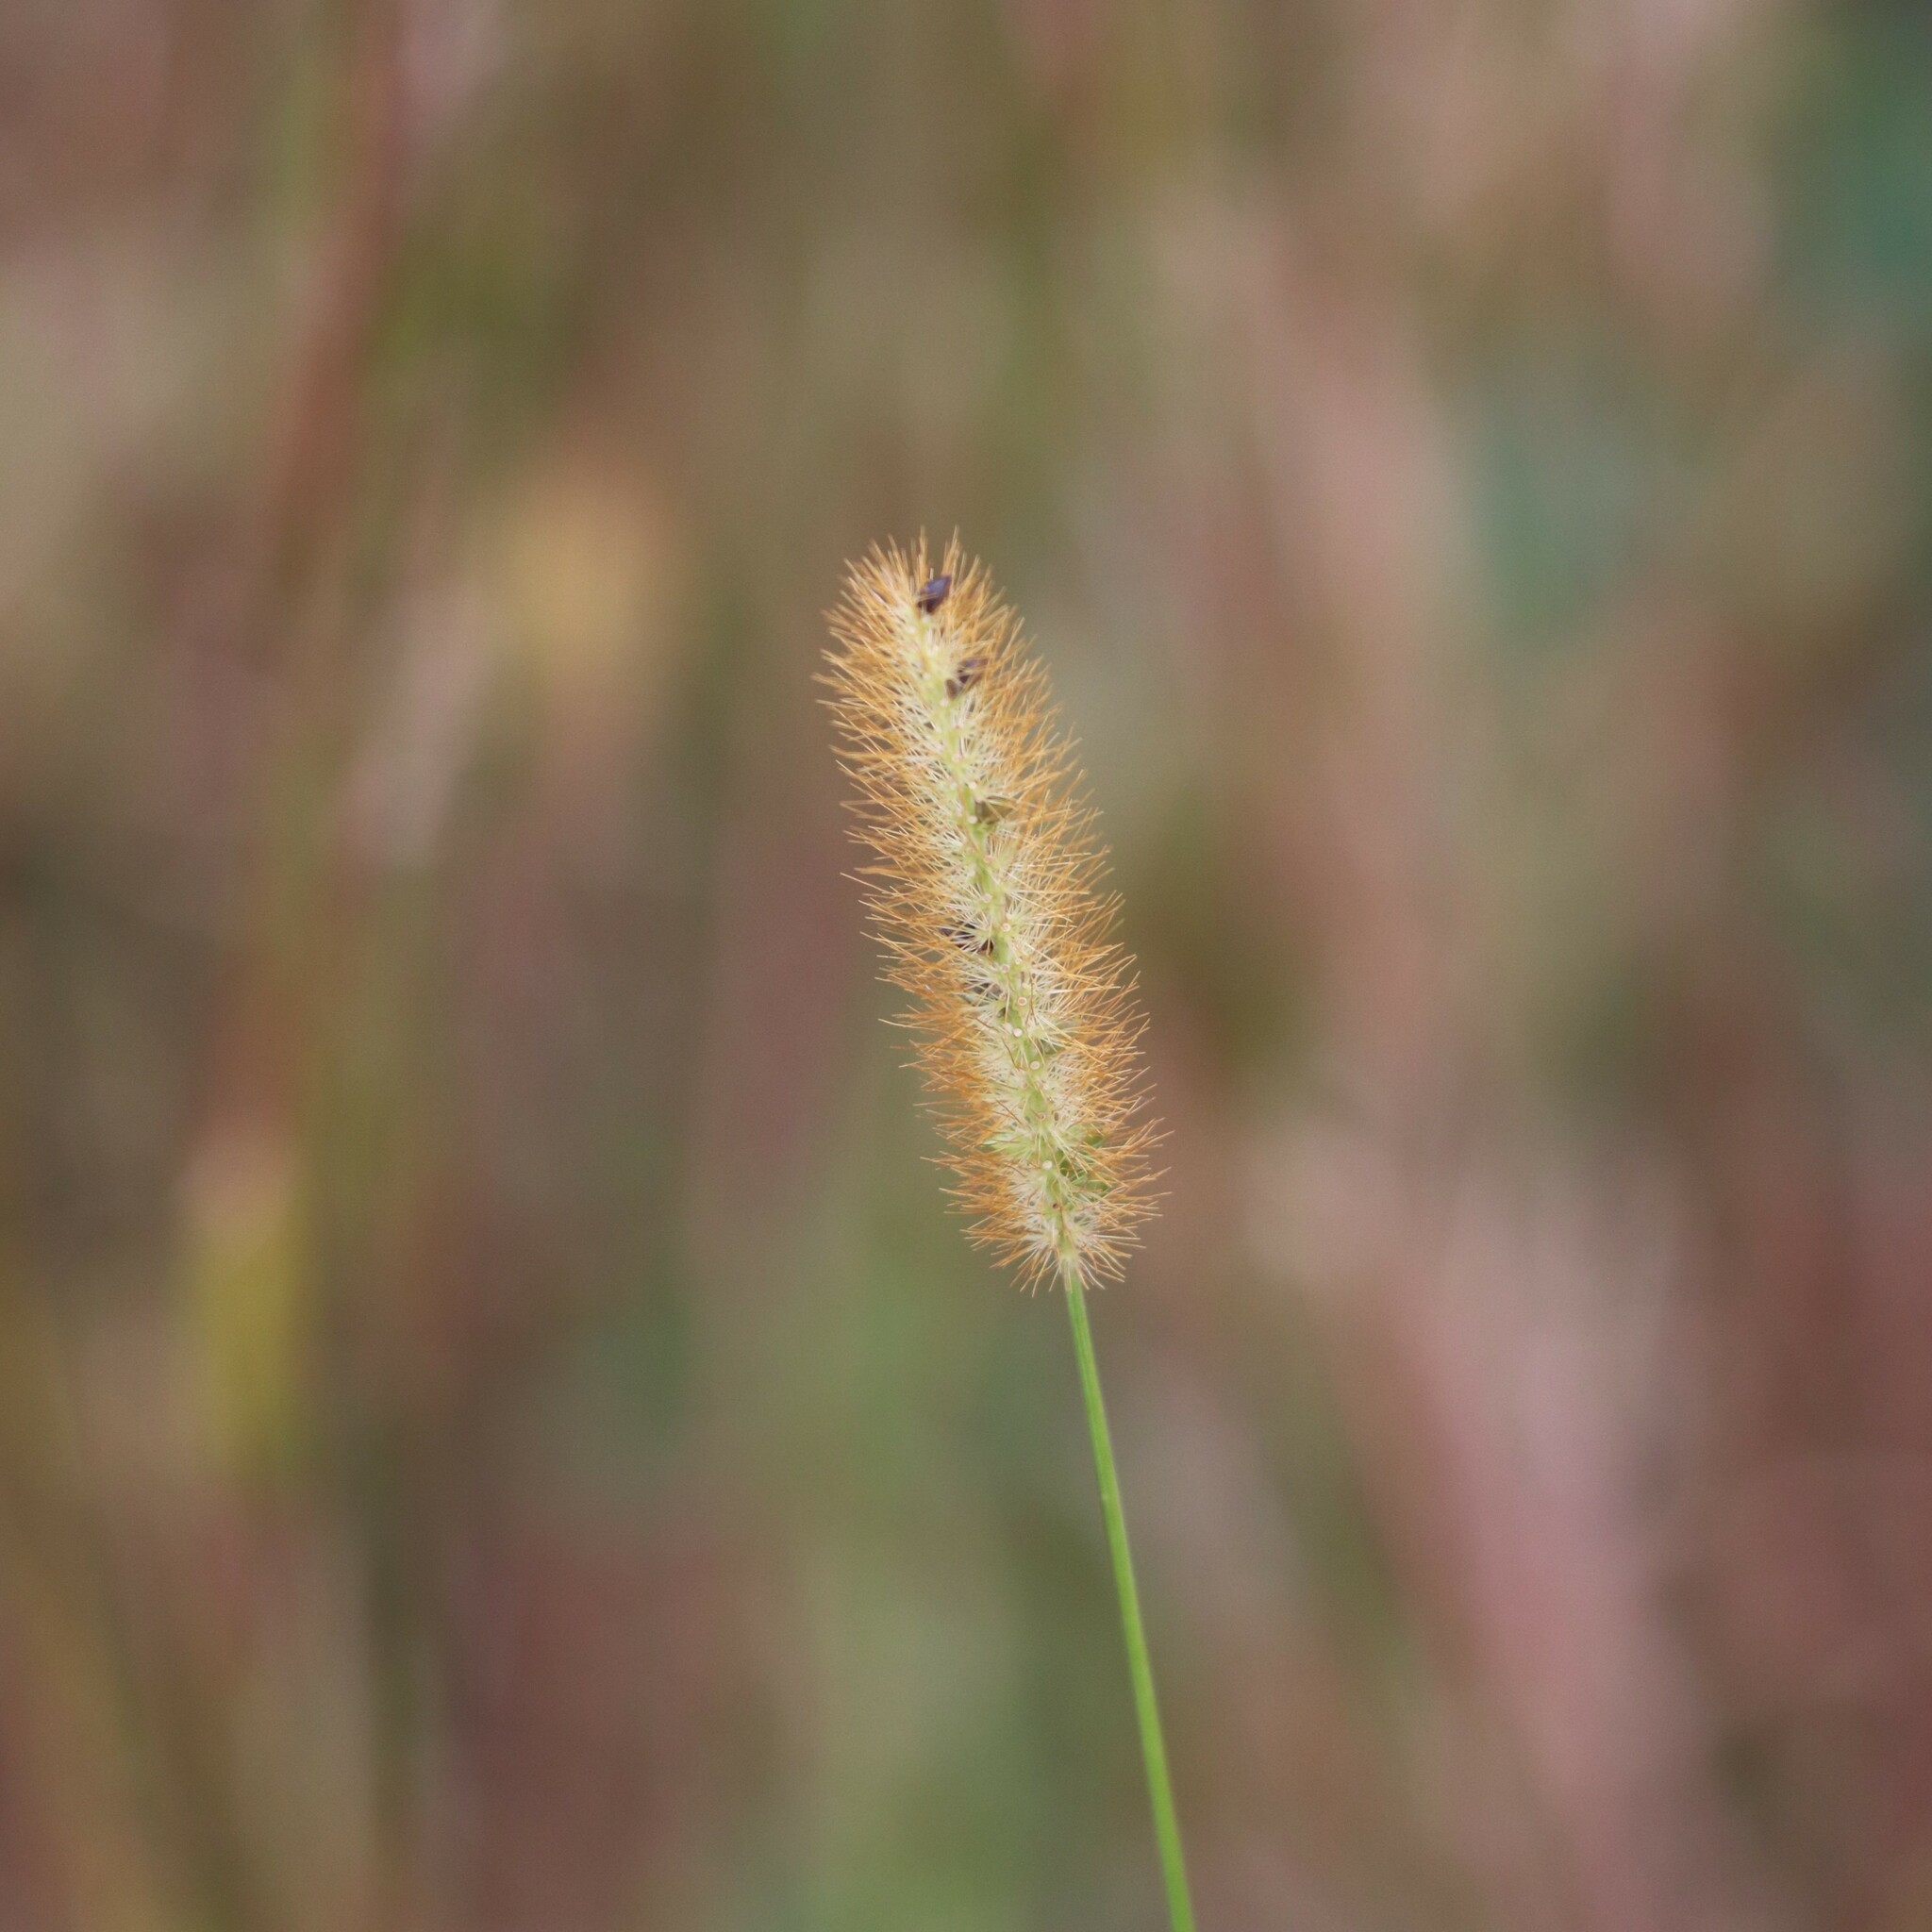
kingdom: Plantae
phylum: Tracheophyta
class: Liliopsida
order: Poales
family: Poaceae
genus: Setaria
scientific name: Setaria pumila
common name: Yellow bristle-grass
